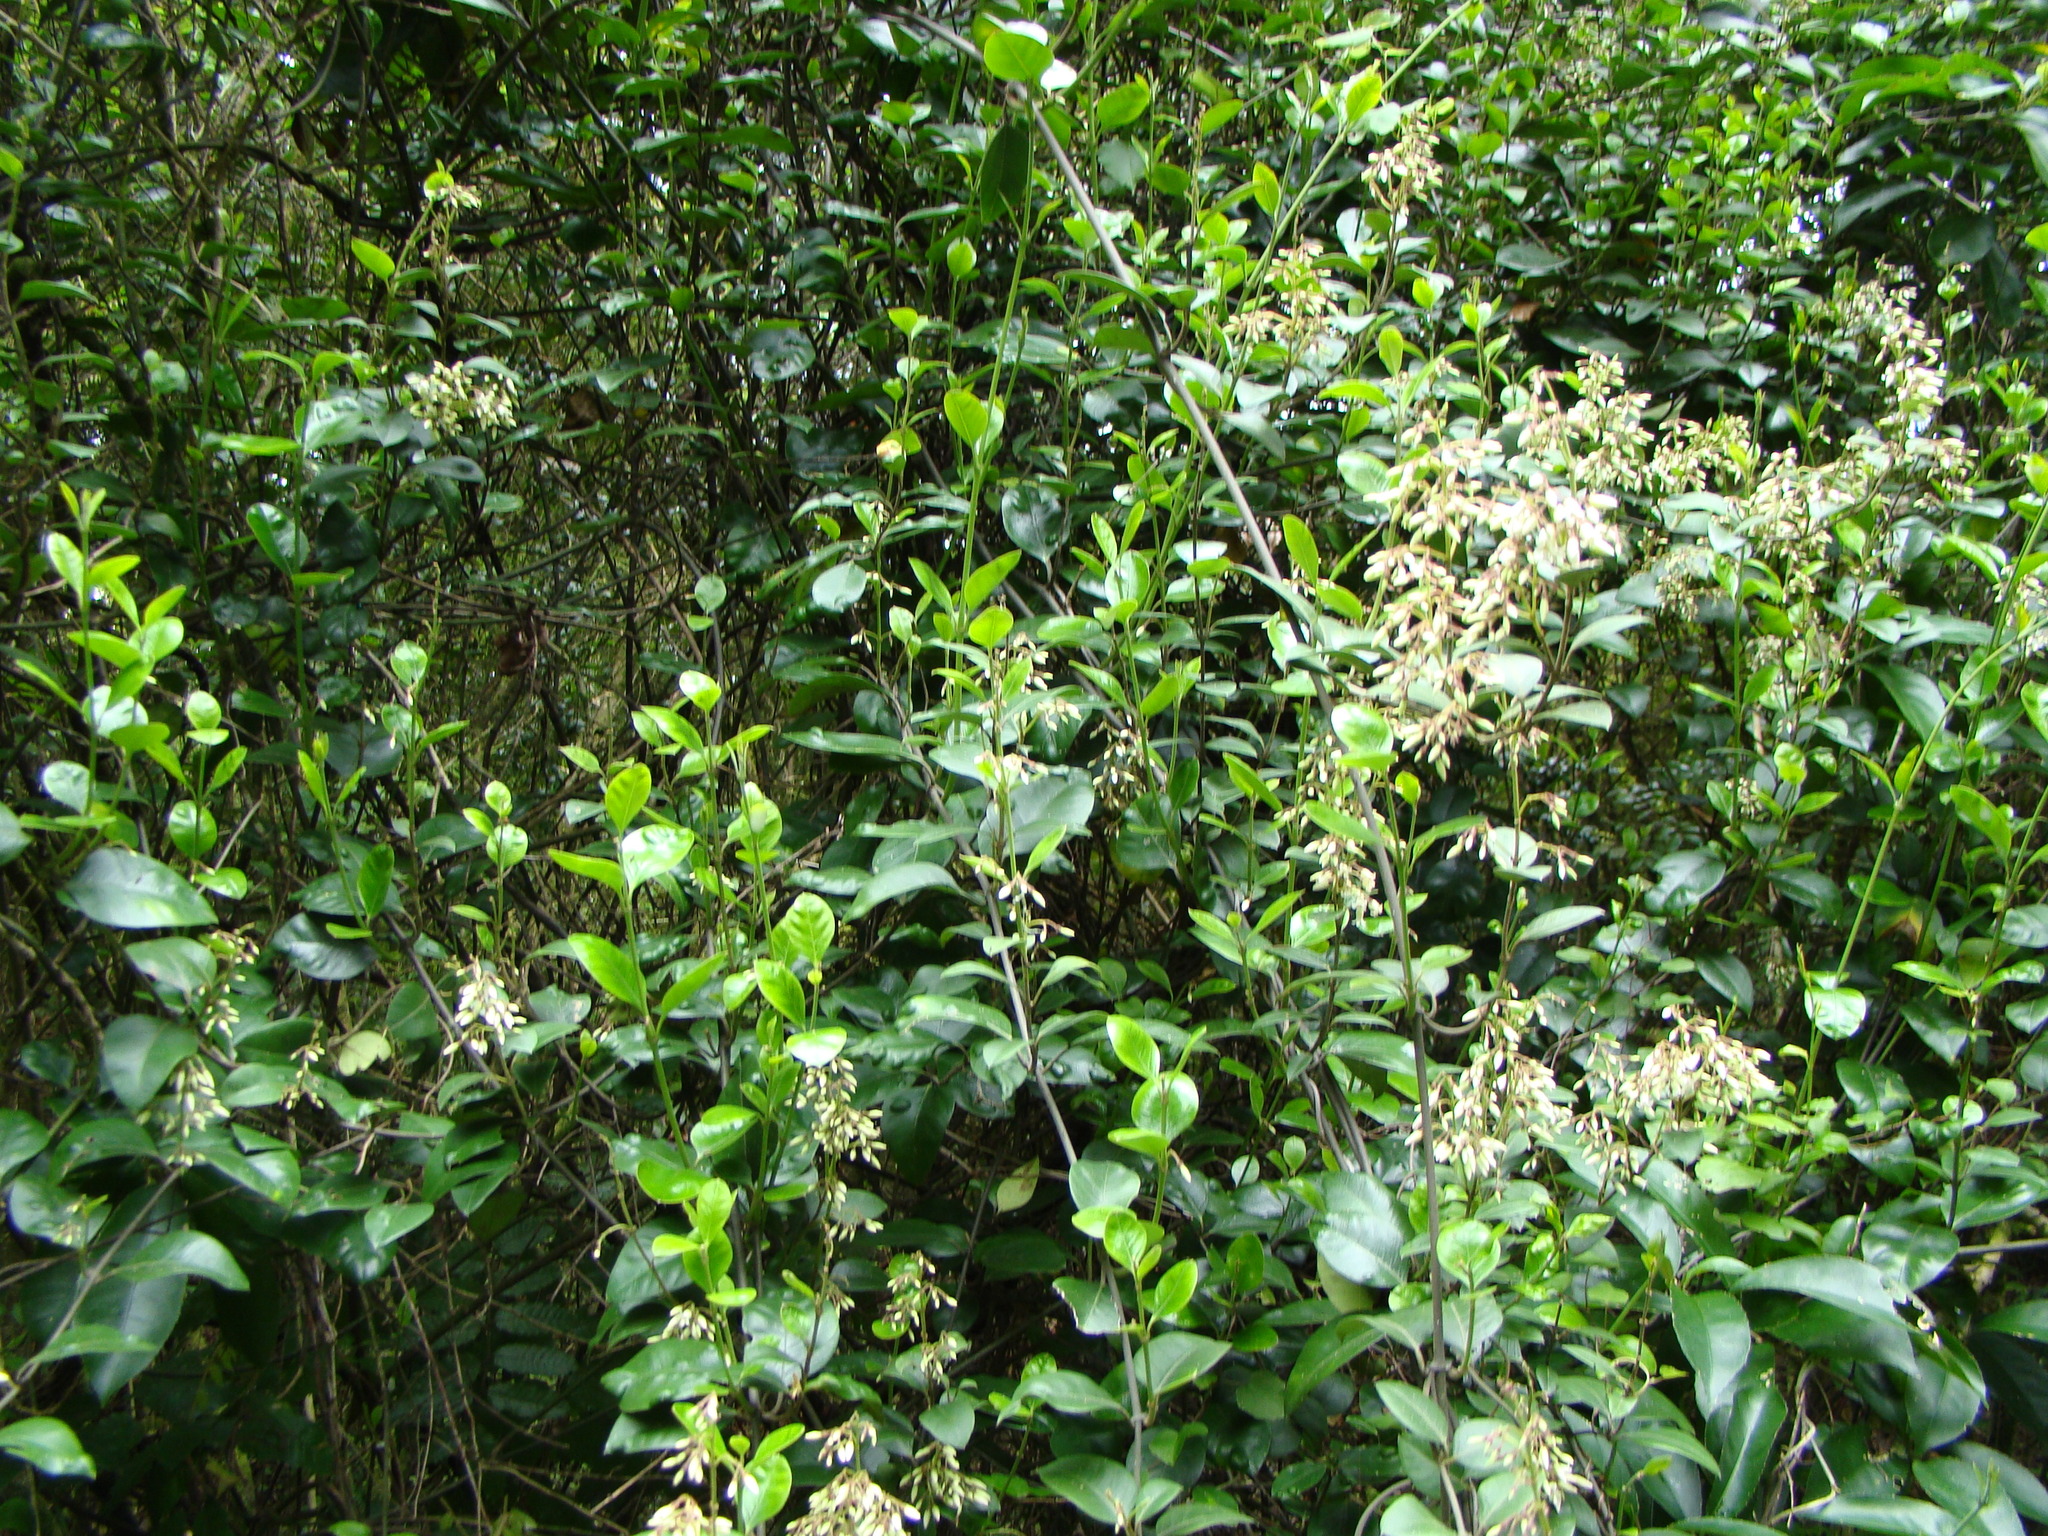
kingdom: Plantae
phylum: Tracheophyta
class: Magnoliopsida
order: Gentianales
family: Apocynaceae
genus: Parsonsia
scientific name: Parsonsia heterophylla
